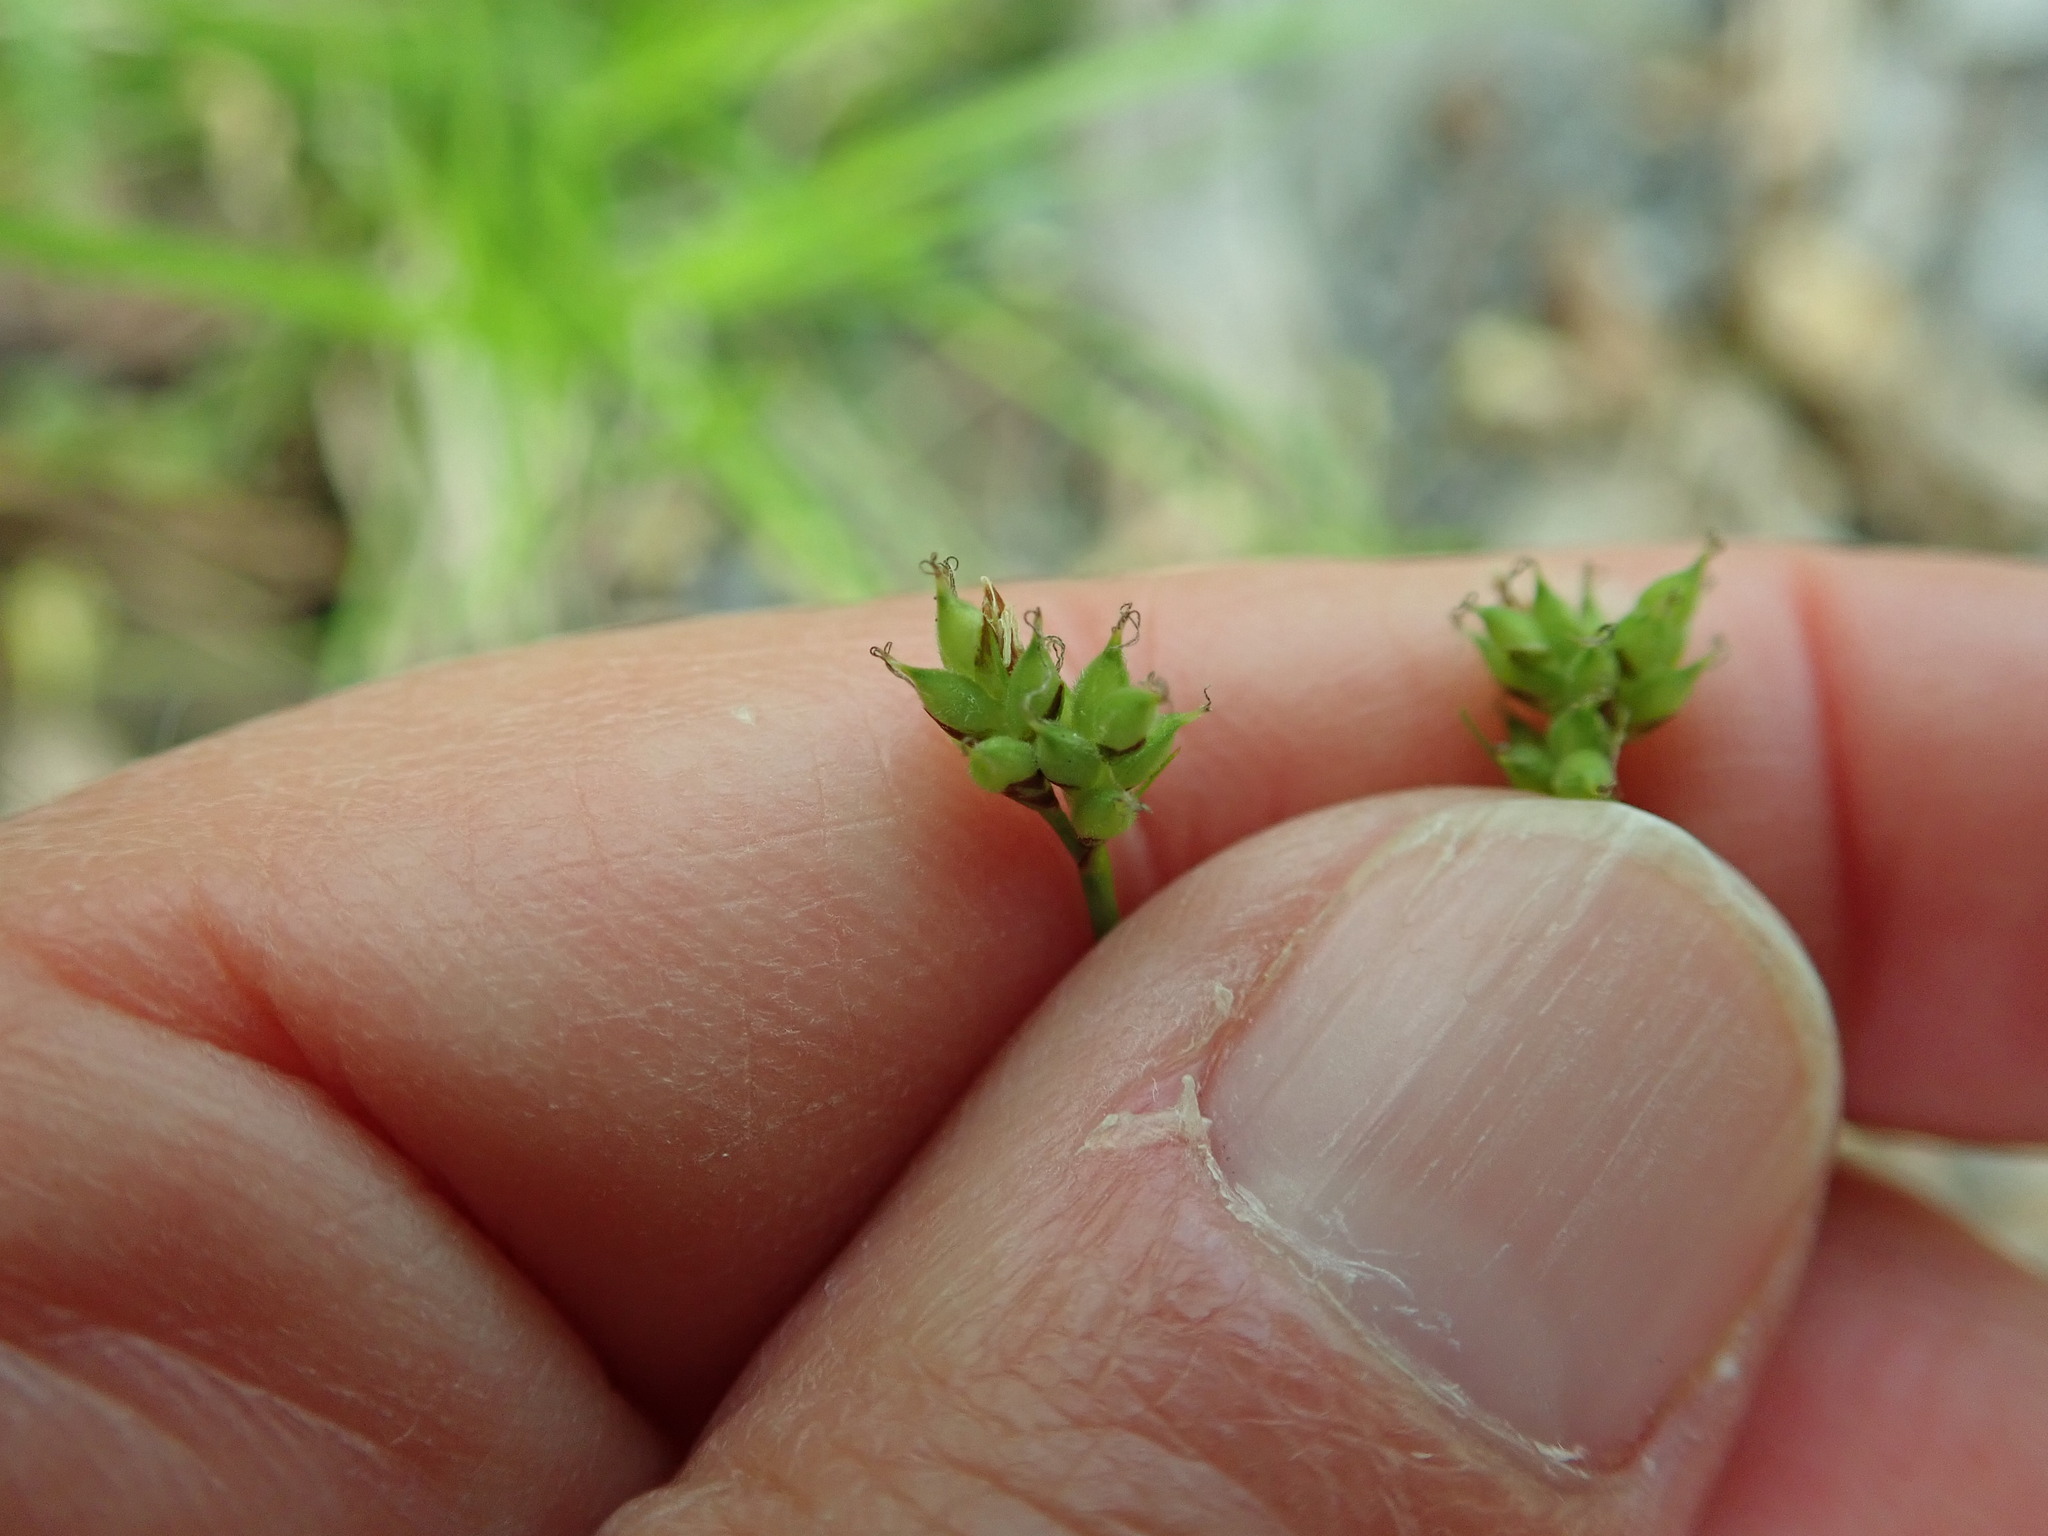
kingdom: Plantae
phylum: Tracheophyta
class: Liliopsida
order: Poales
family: Cyperaceae
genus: Carex
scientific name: Carex peckii
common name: Peck's oak sedge
